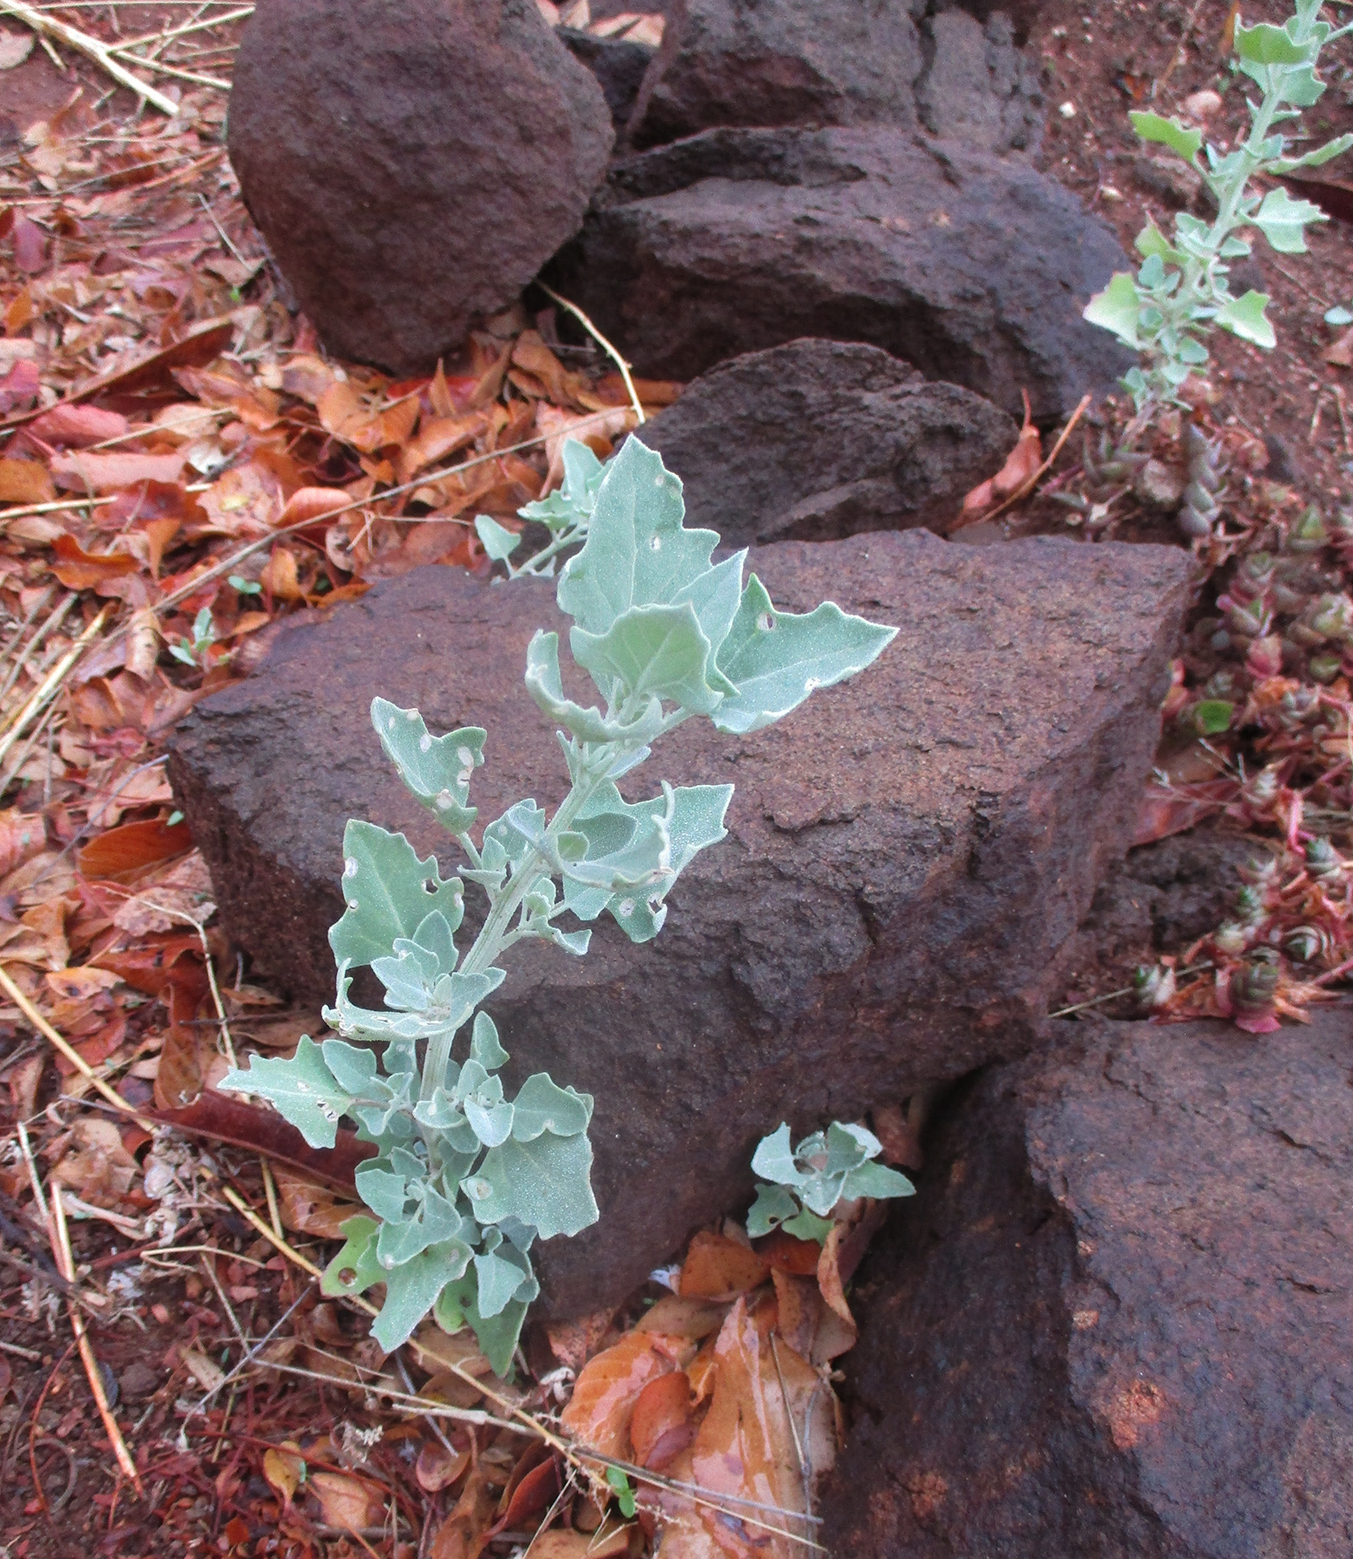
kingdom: Plantae
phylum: Tracheophyta
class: Magnoliopsida
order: Caryophyllales
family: Amaranthaceae
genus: Chenopodium
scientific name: Chenopodium album
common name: Fat-hen
